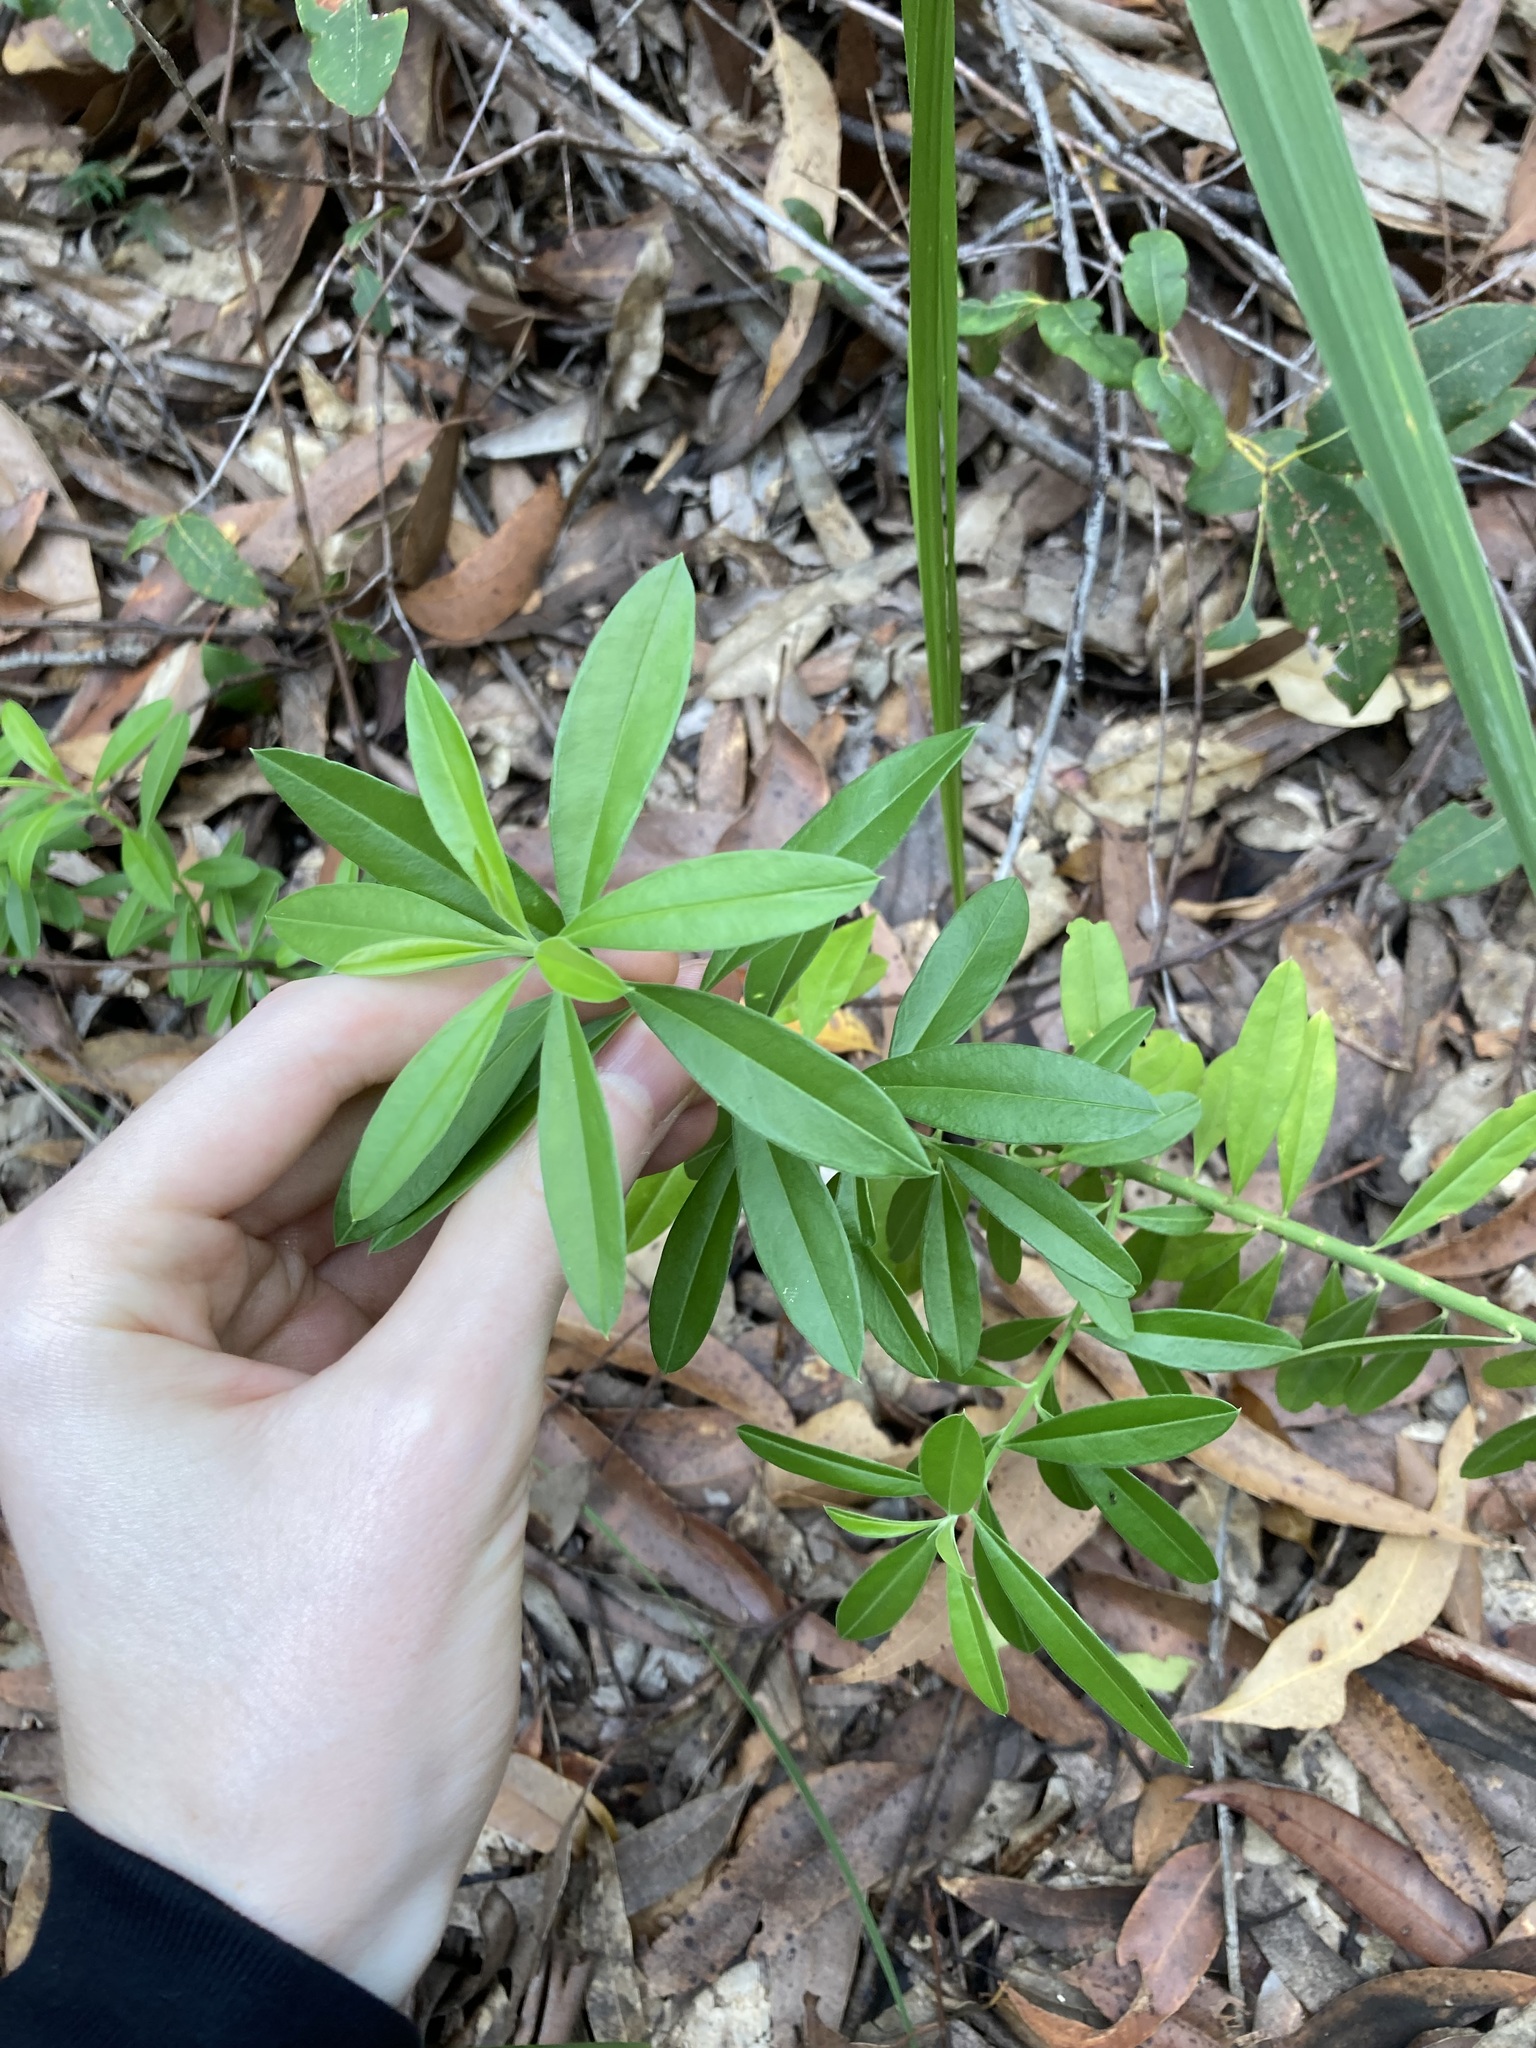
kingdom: Plantae
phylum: Tracheophyta
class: Magnoliopsida
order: Fabales
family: Polygalaceae
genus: Polygala
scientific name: Polygala virgata
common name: Milkwort
